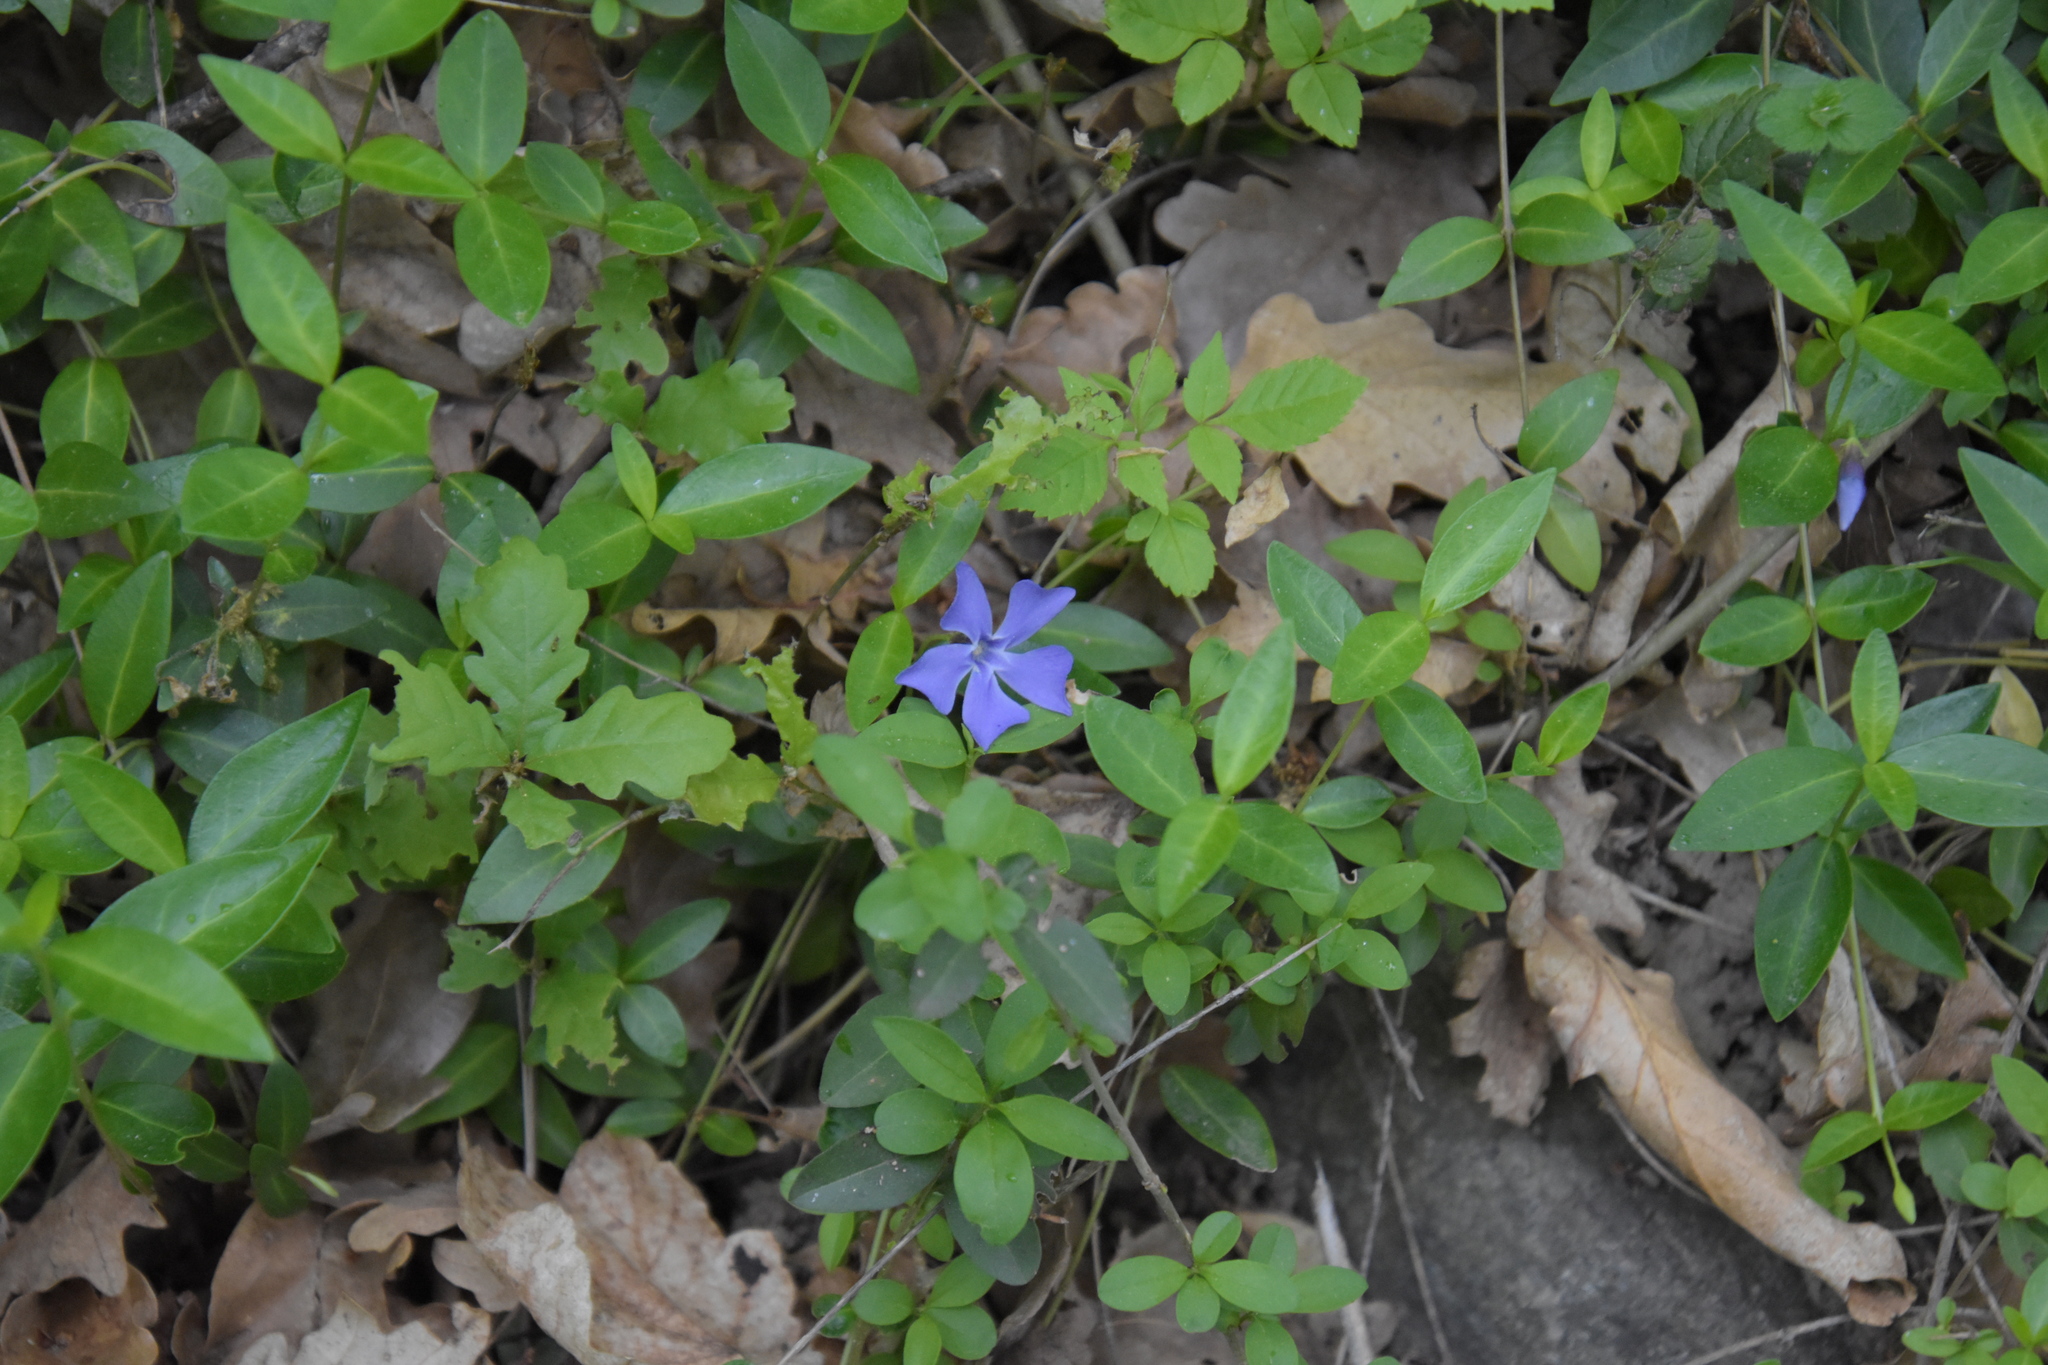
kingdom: Plantae
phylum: Tracheophyta
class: Magnoliopsida
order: Gentianales
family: Apocynaceae
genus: Vinca
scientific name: Vinca minor
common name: Lesser periwinkle
